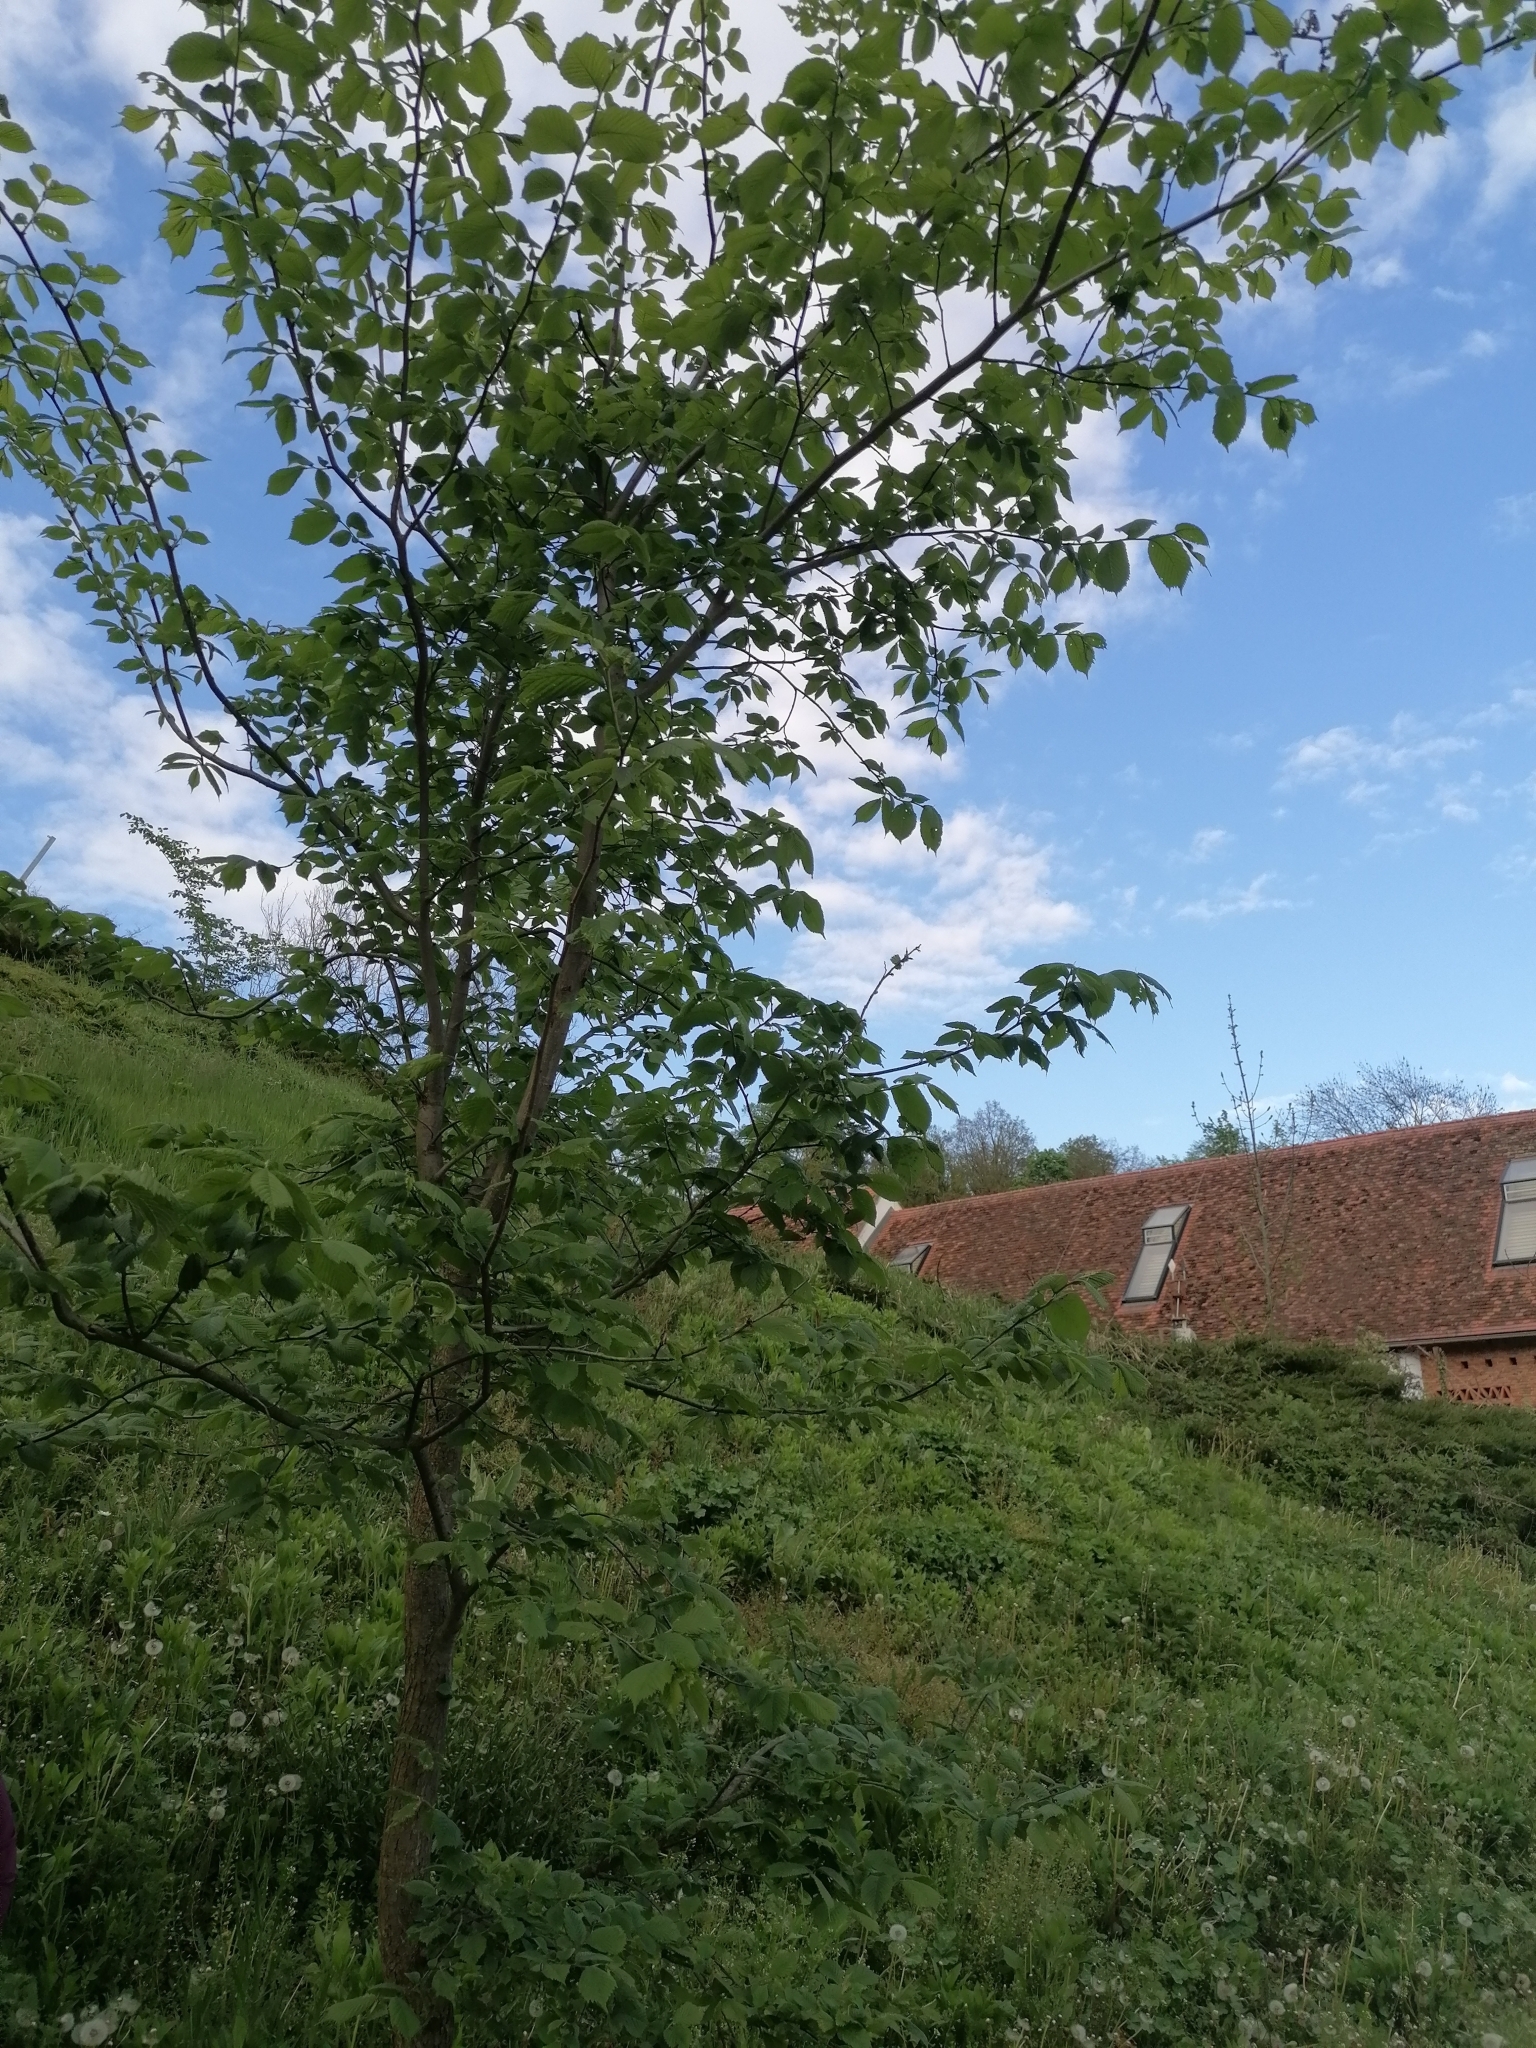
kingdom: Plantae
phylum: Tracheophyta
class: Magnoliopsida
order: Rosales
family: Ulmaceae
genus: Ulmus
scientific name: Ulmus glabra
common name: Wych elm
